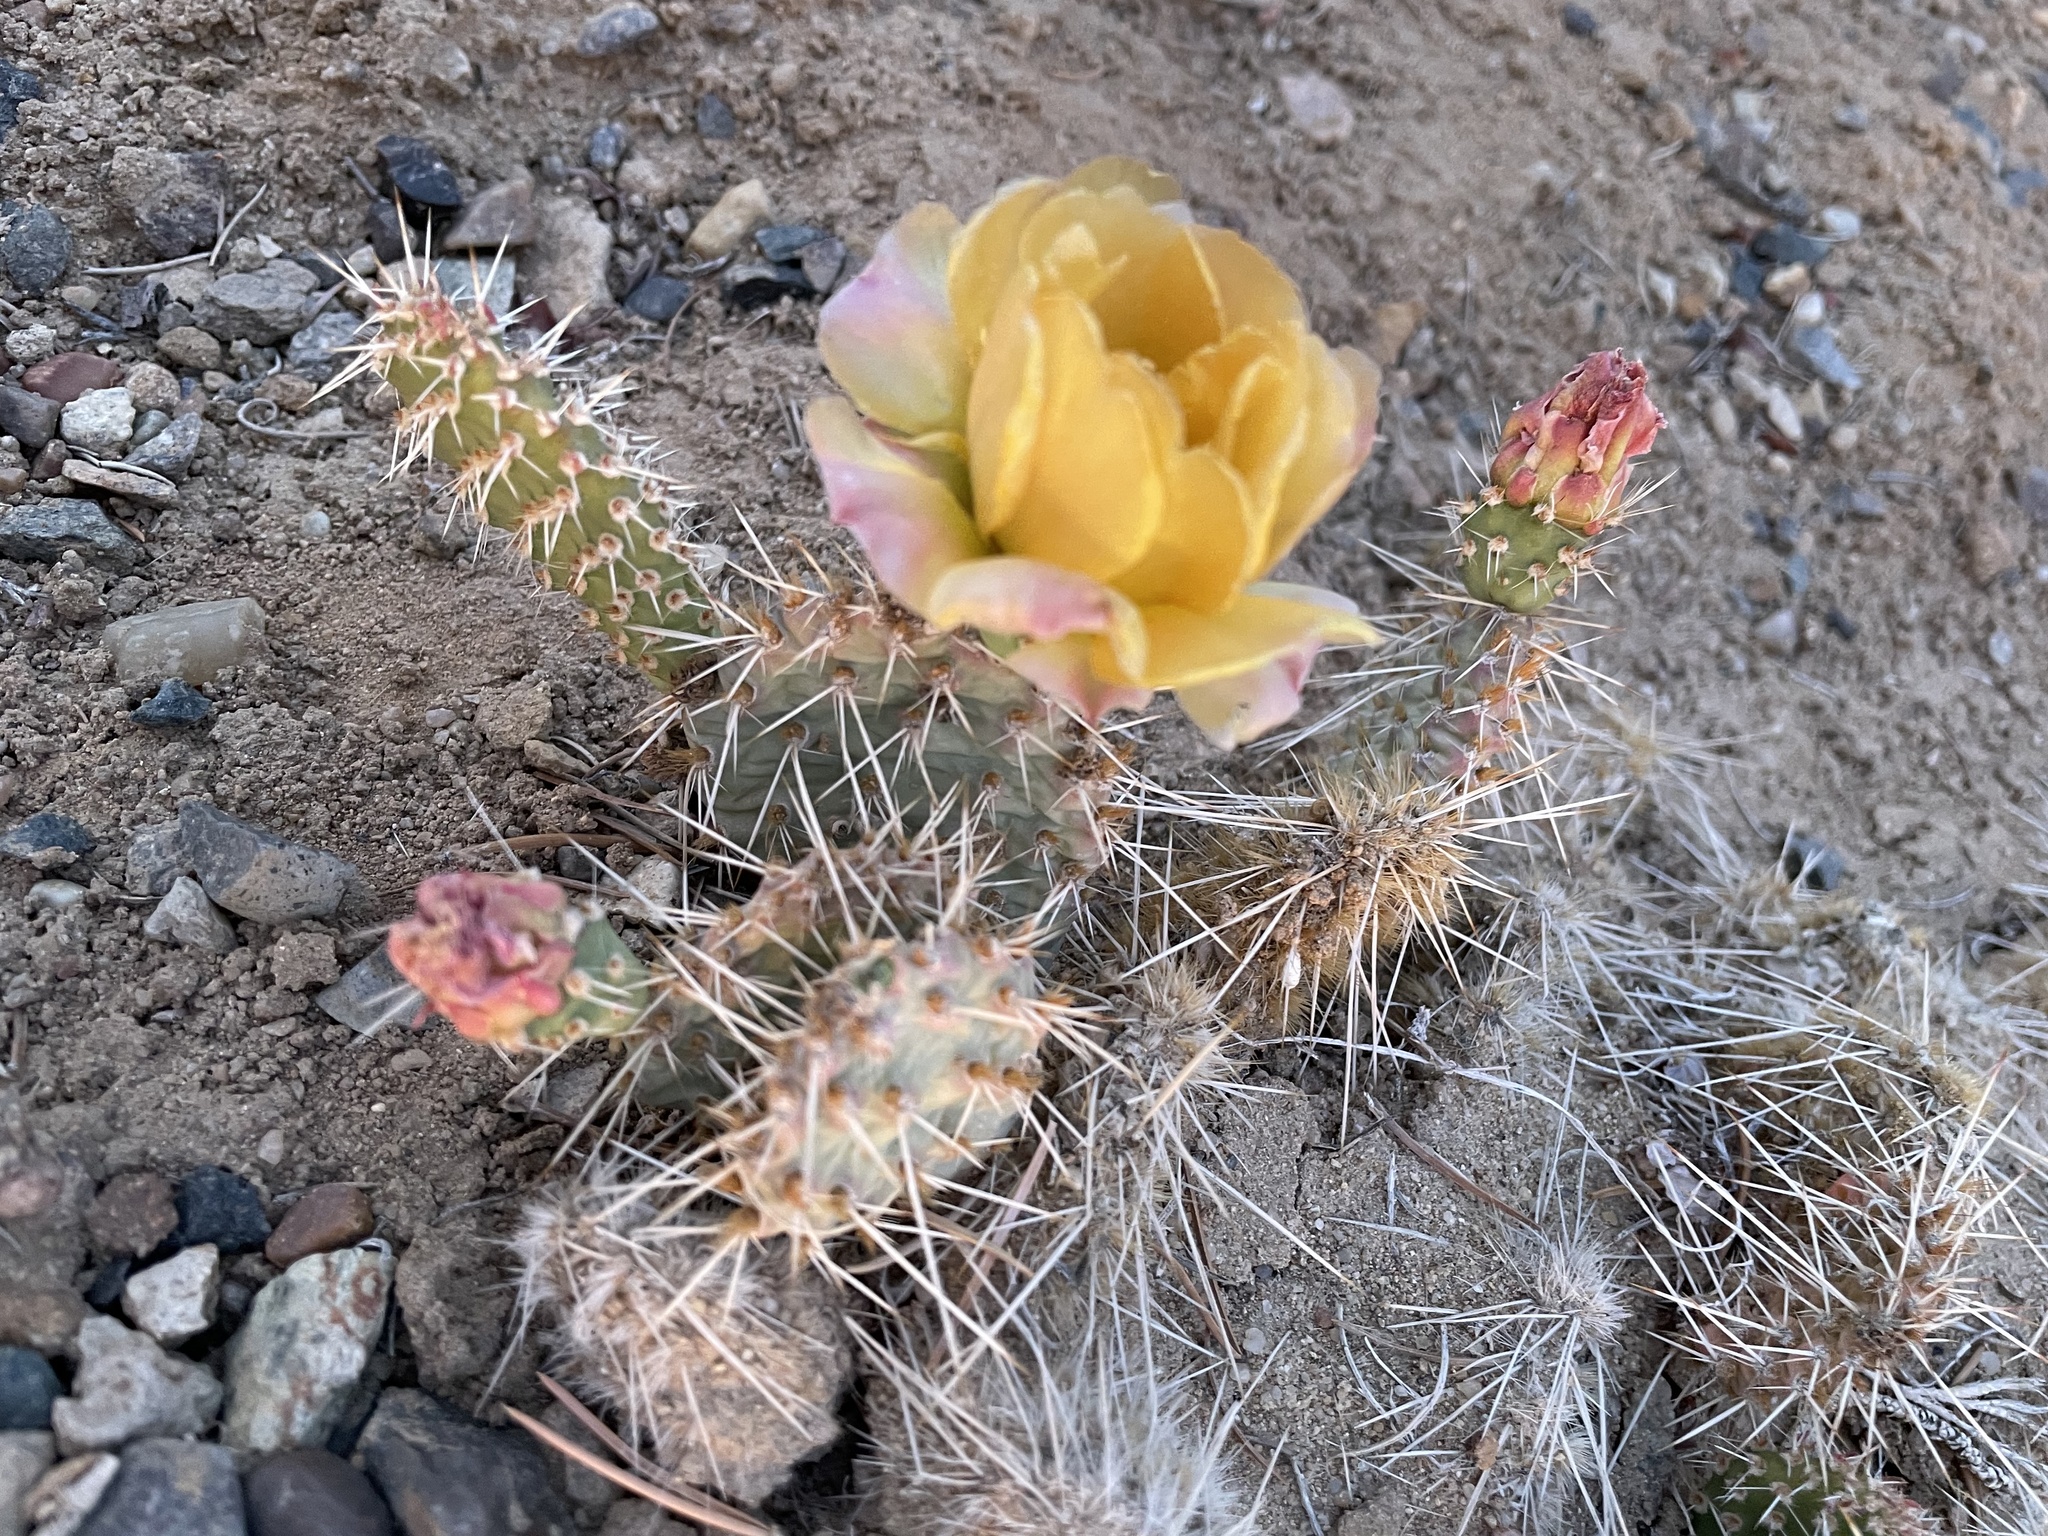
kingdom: Plantae
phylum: Tracheophyta
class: Magnoliopsida
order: Caryophyllales
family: Cactaceae
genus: Opuntia
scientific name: Opuntia polyacantha
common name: Plains prickly-pear
